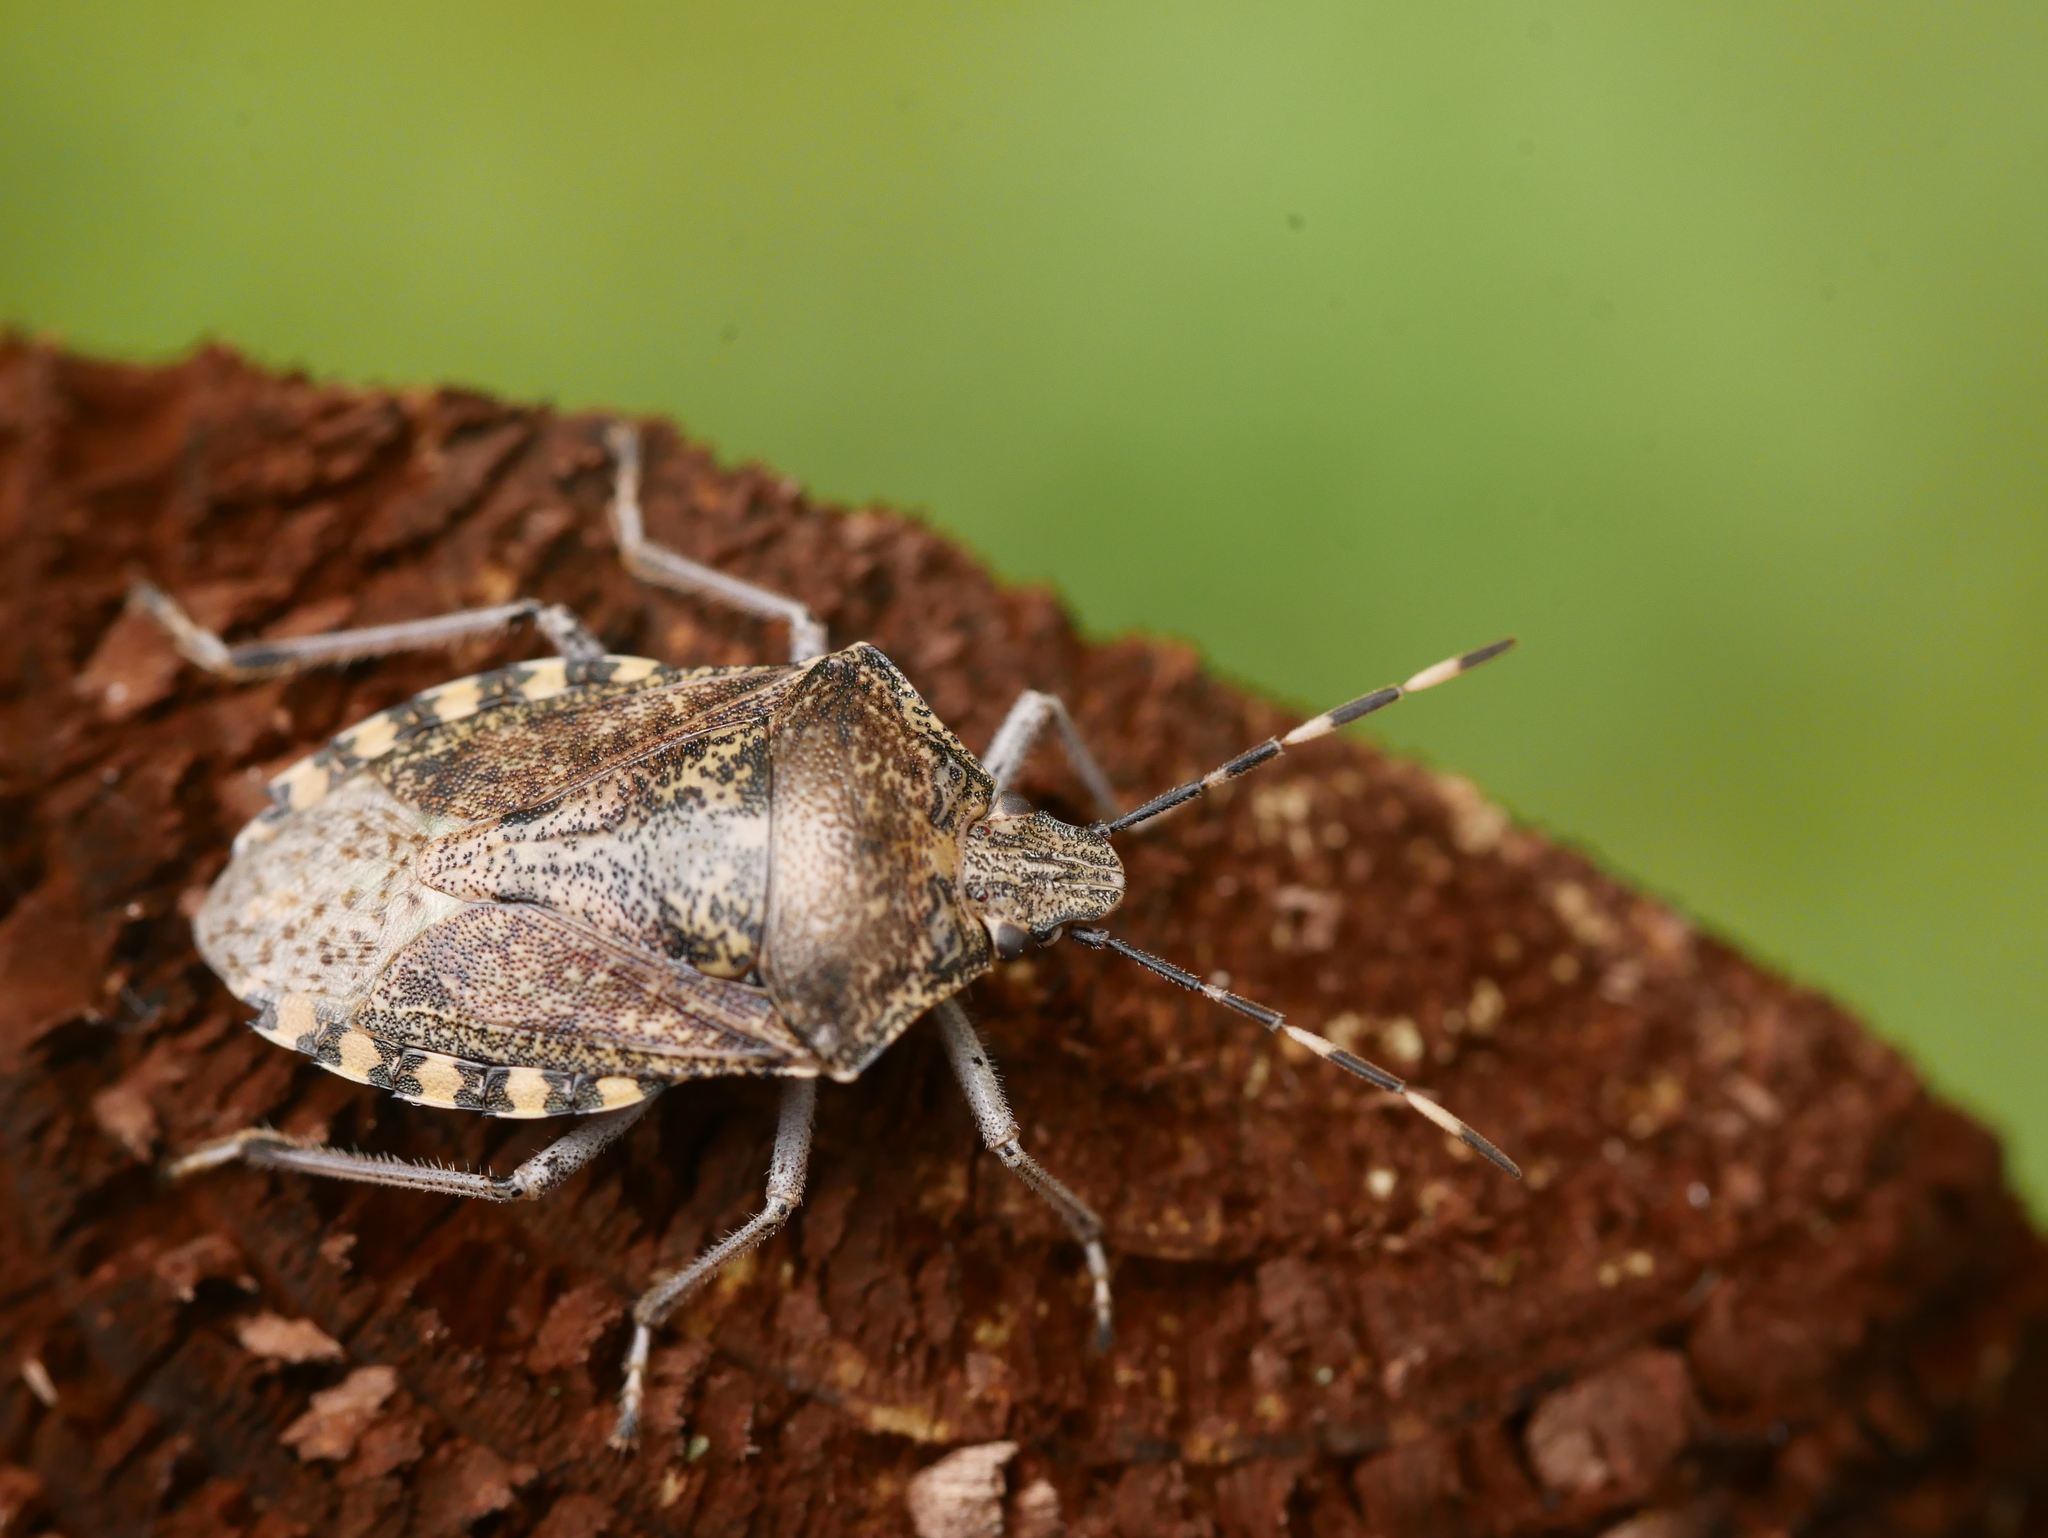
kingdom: Animalia
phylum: Arthropoda
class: Insecta
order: Hemiptera
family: Pentatomidae
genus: Rhaphigaster
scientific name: Rhaphigaster nebulosa
